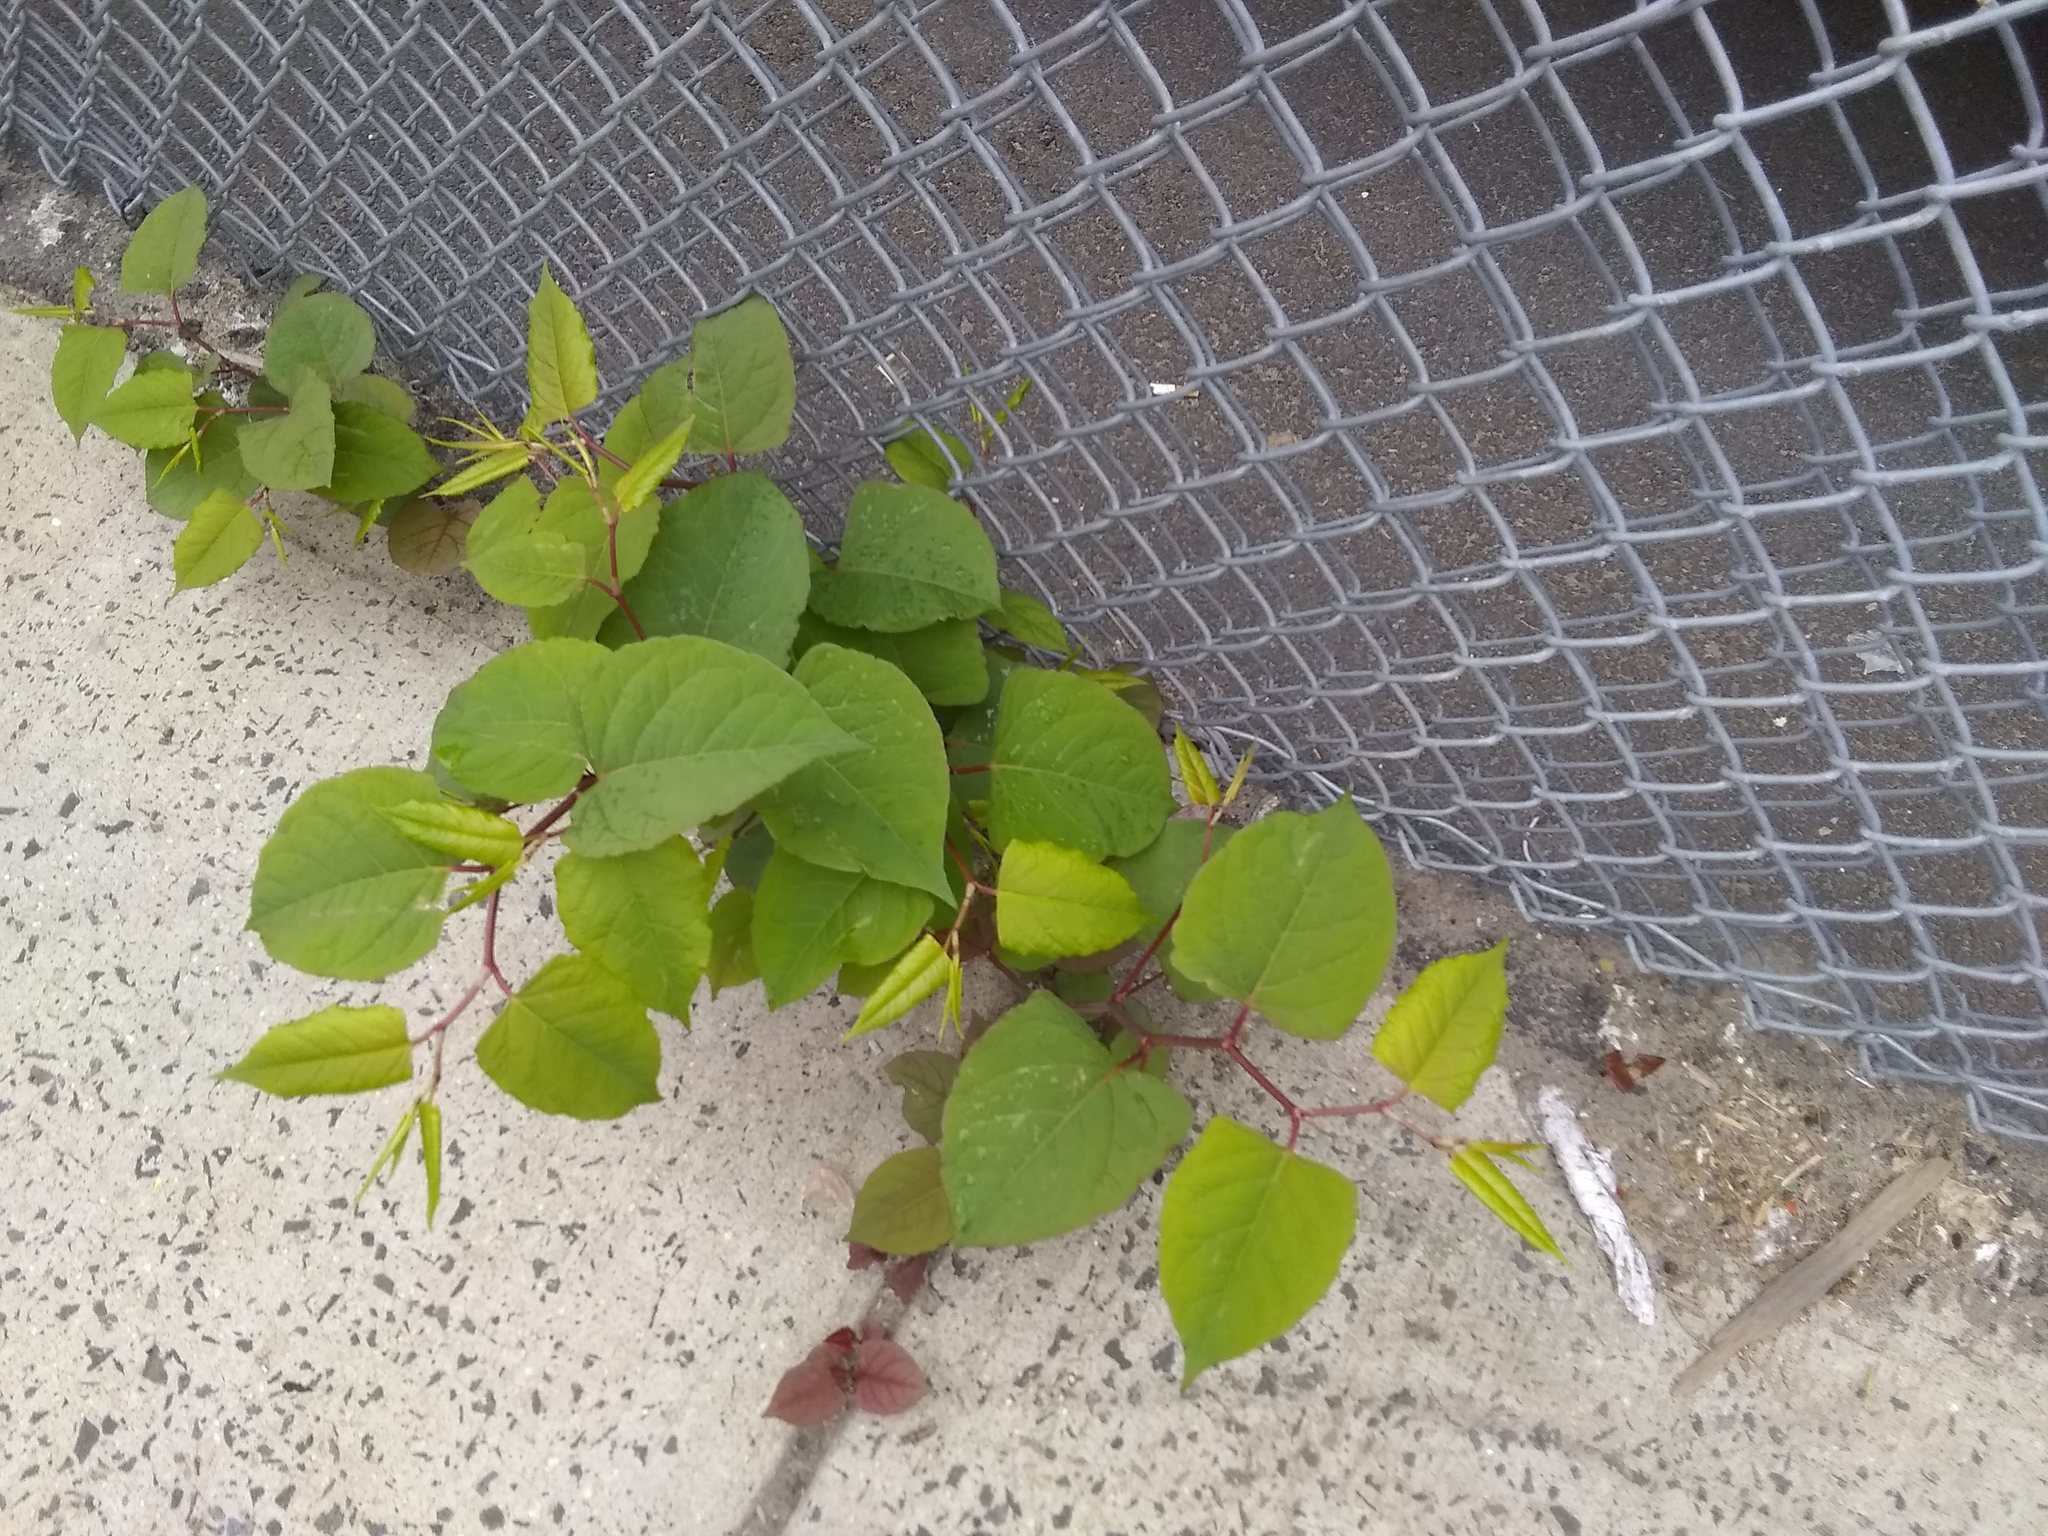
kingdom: Plantae
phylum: Tracheophyta
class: Magnoliopsida
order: Caryophyllales
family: Polygonaceae
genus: Reynoutria
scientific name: Reynoutria japonica
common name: Japanese knotweed
